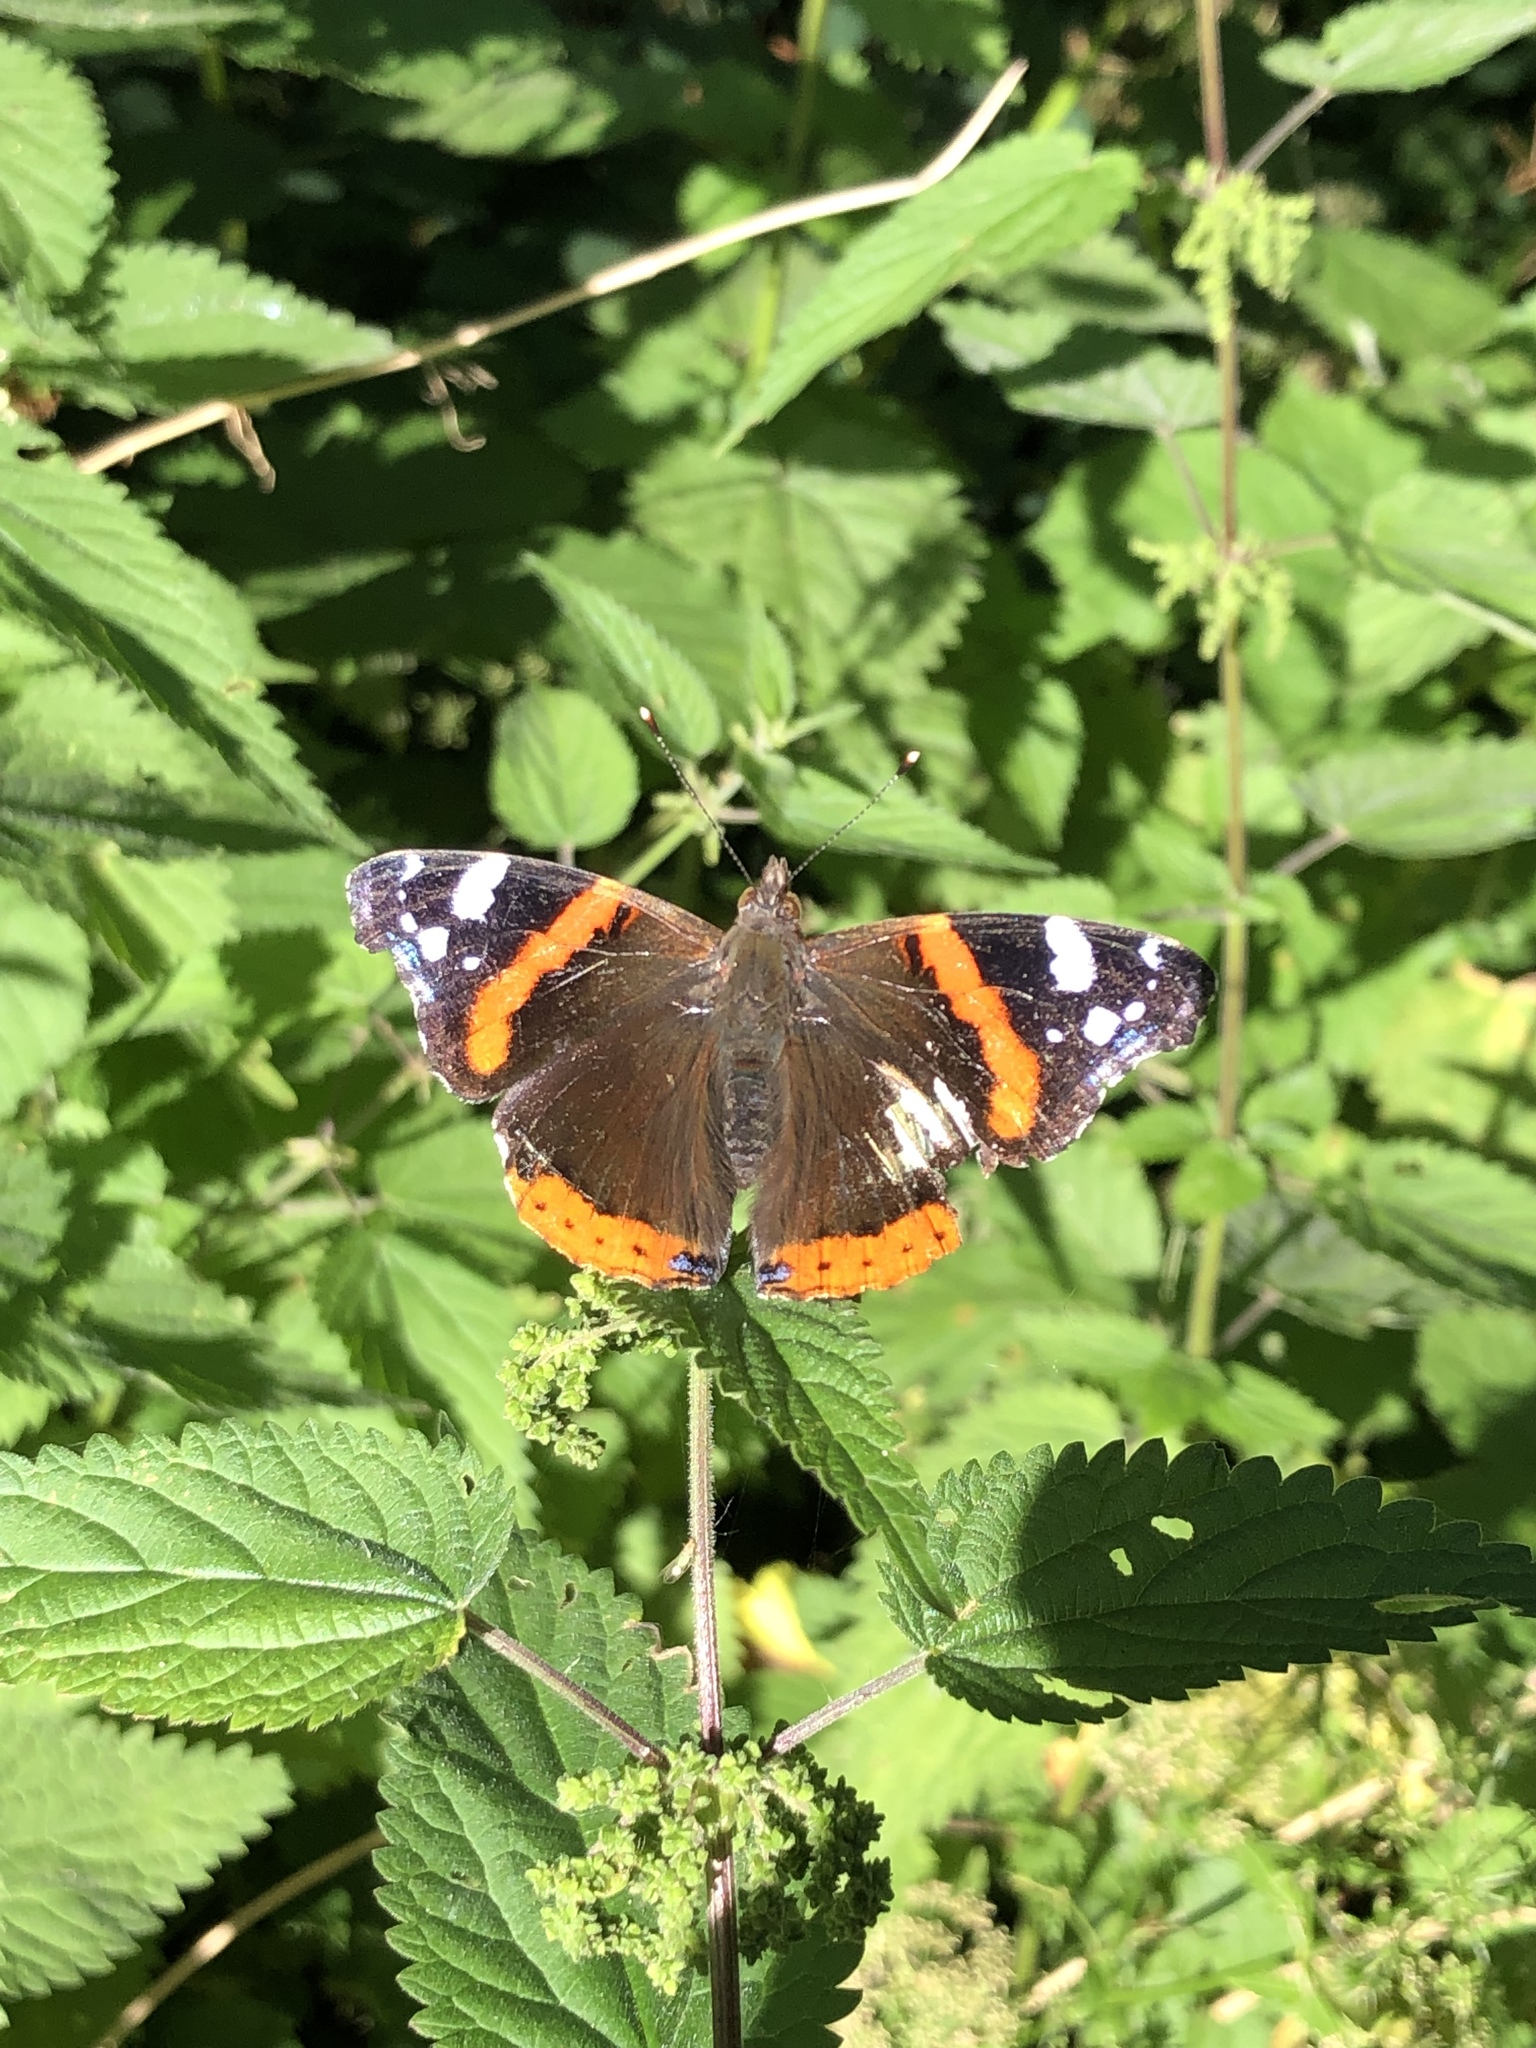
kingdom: Animalia
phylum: Arthropoda
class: Insecta
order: Lepidoptera
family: Nymphalidae
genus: Vanessa
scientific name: Vanessa atalanta
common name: Red admiral
